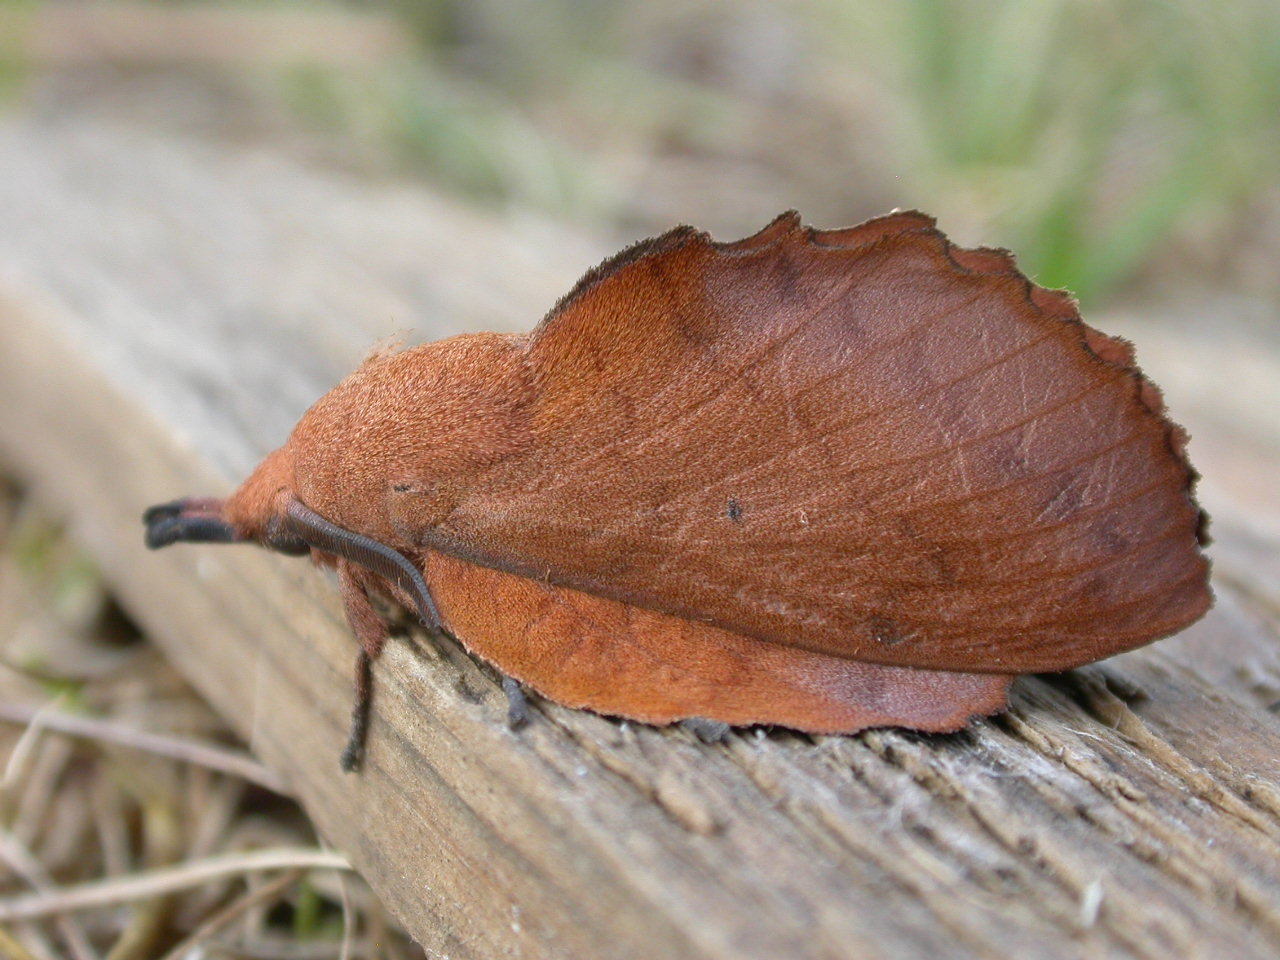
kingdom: Animalia
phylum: Arthropoda
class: Insecta
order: Lepidoptera
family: Lasiocampidae
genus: Gastropacha
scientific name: Gastropacha quercifolia
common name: Lappet
